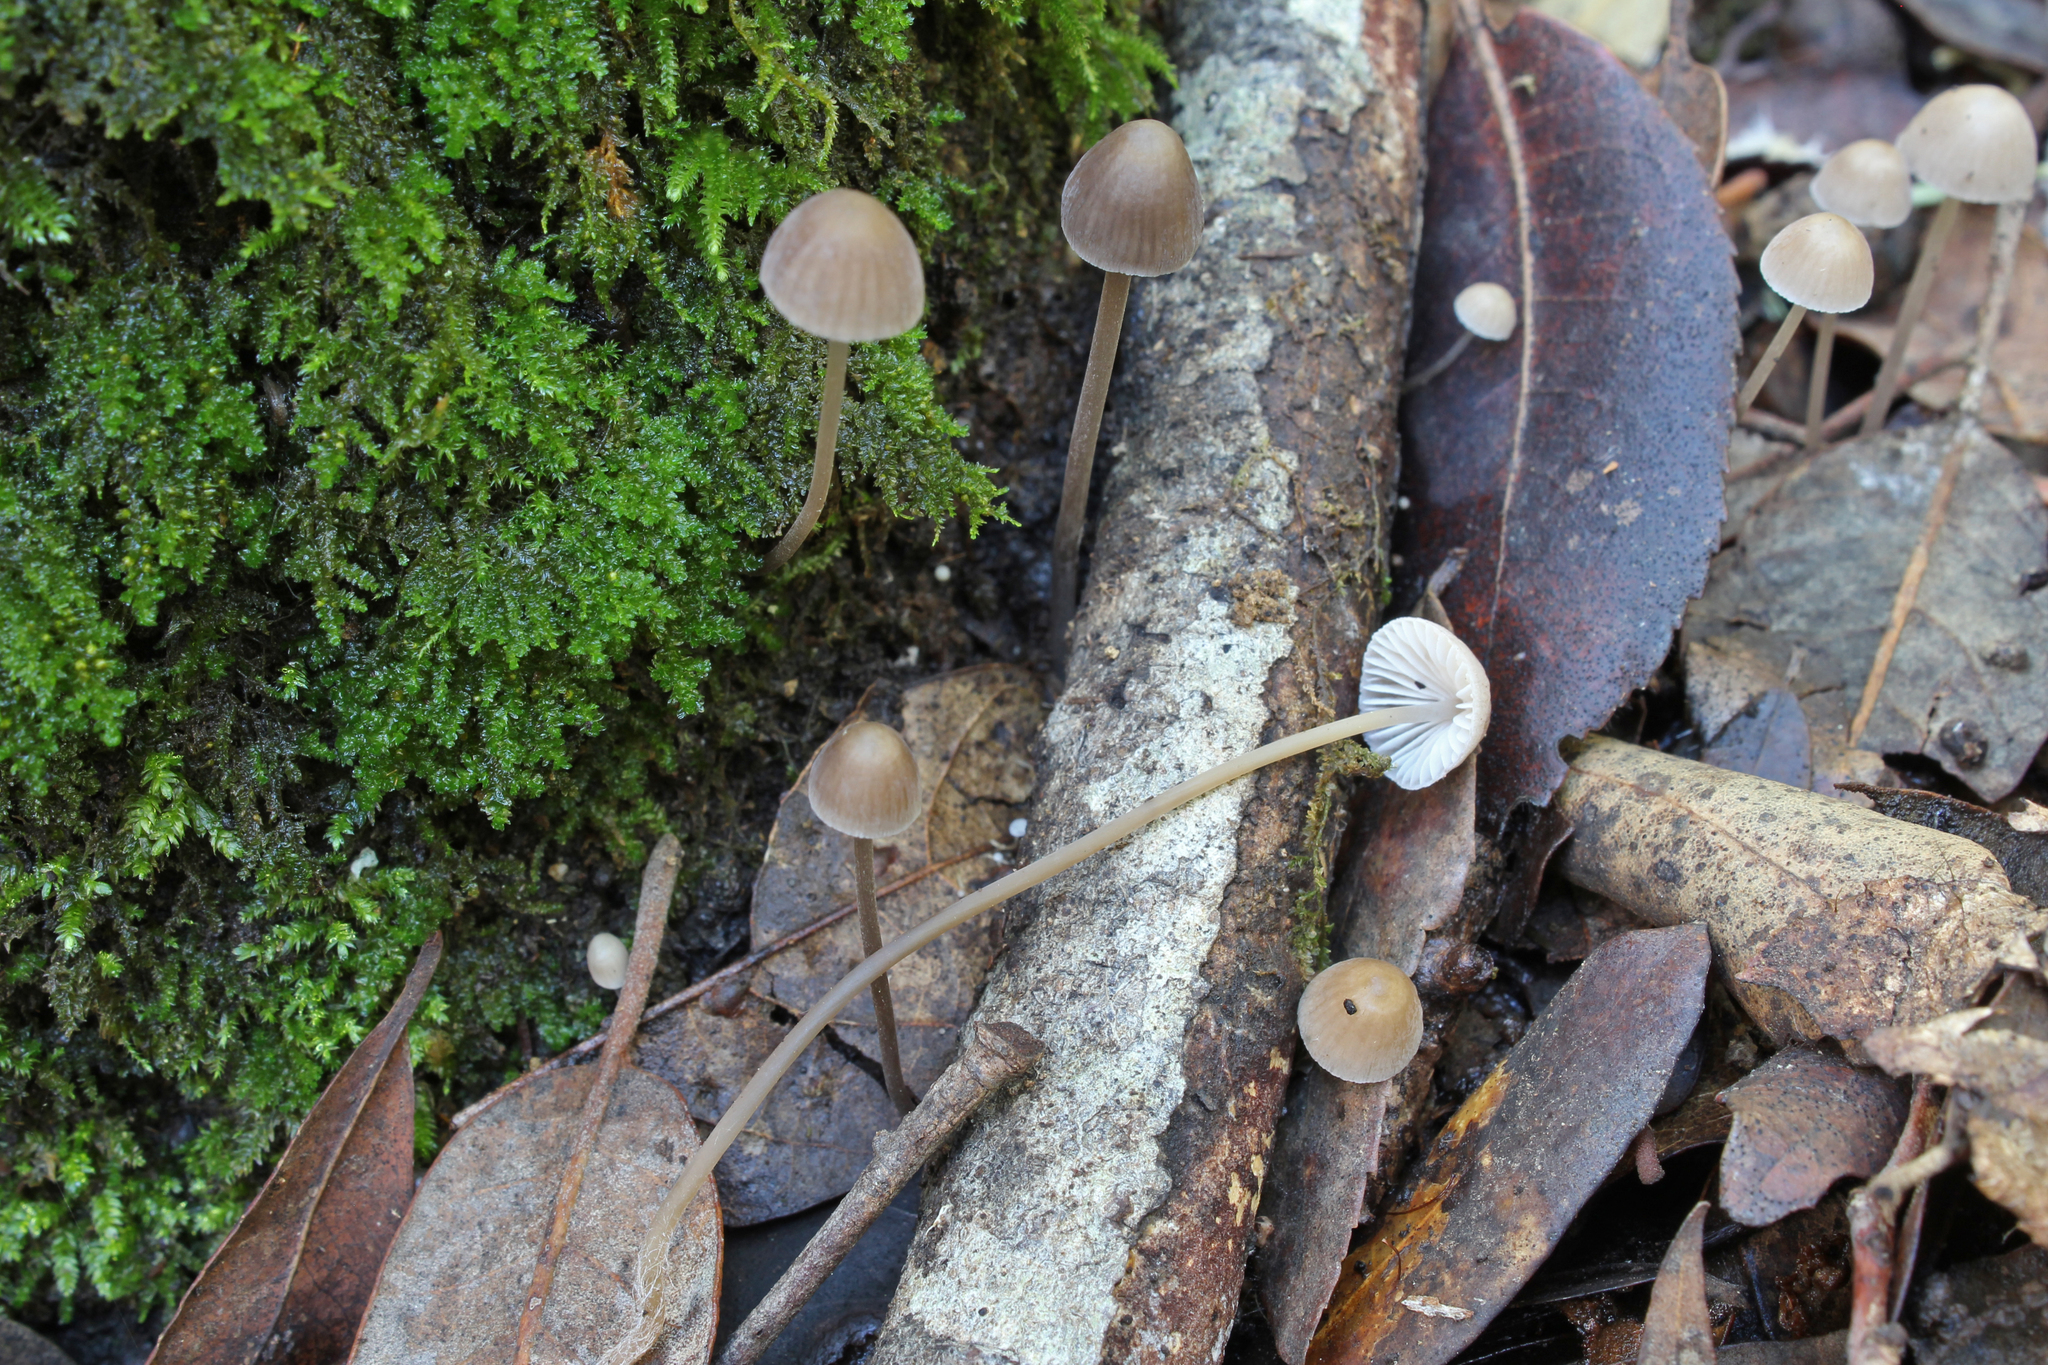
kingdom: Fungi
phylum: Basidiomycota
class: Agaricomycetes
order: Agaricales
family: Mycenaceae
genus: Mycena
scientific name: Mycena erubescens
